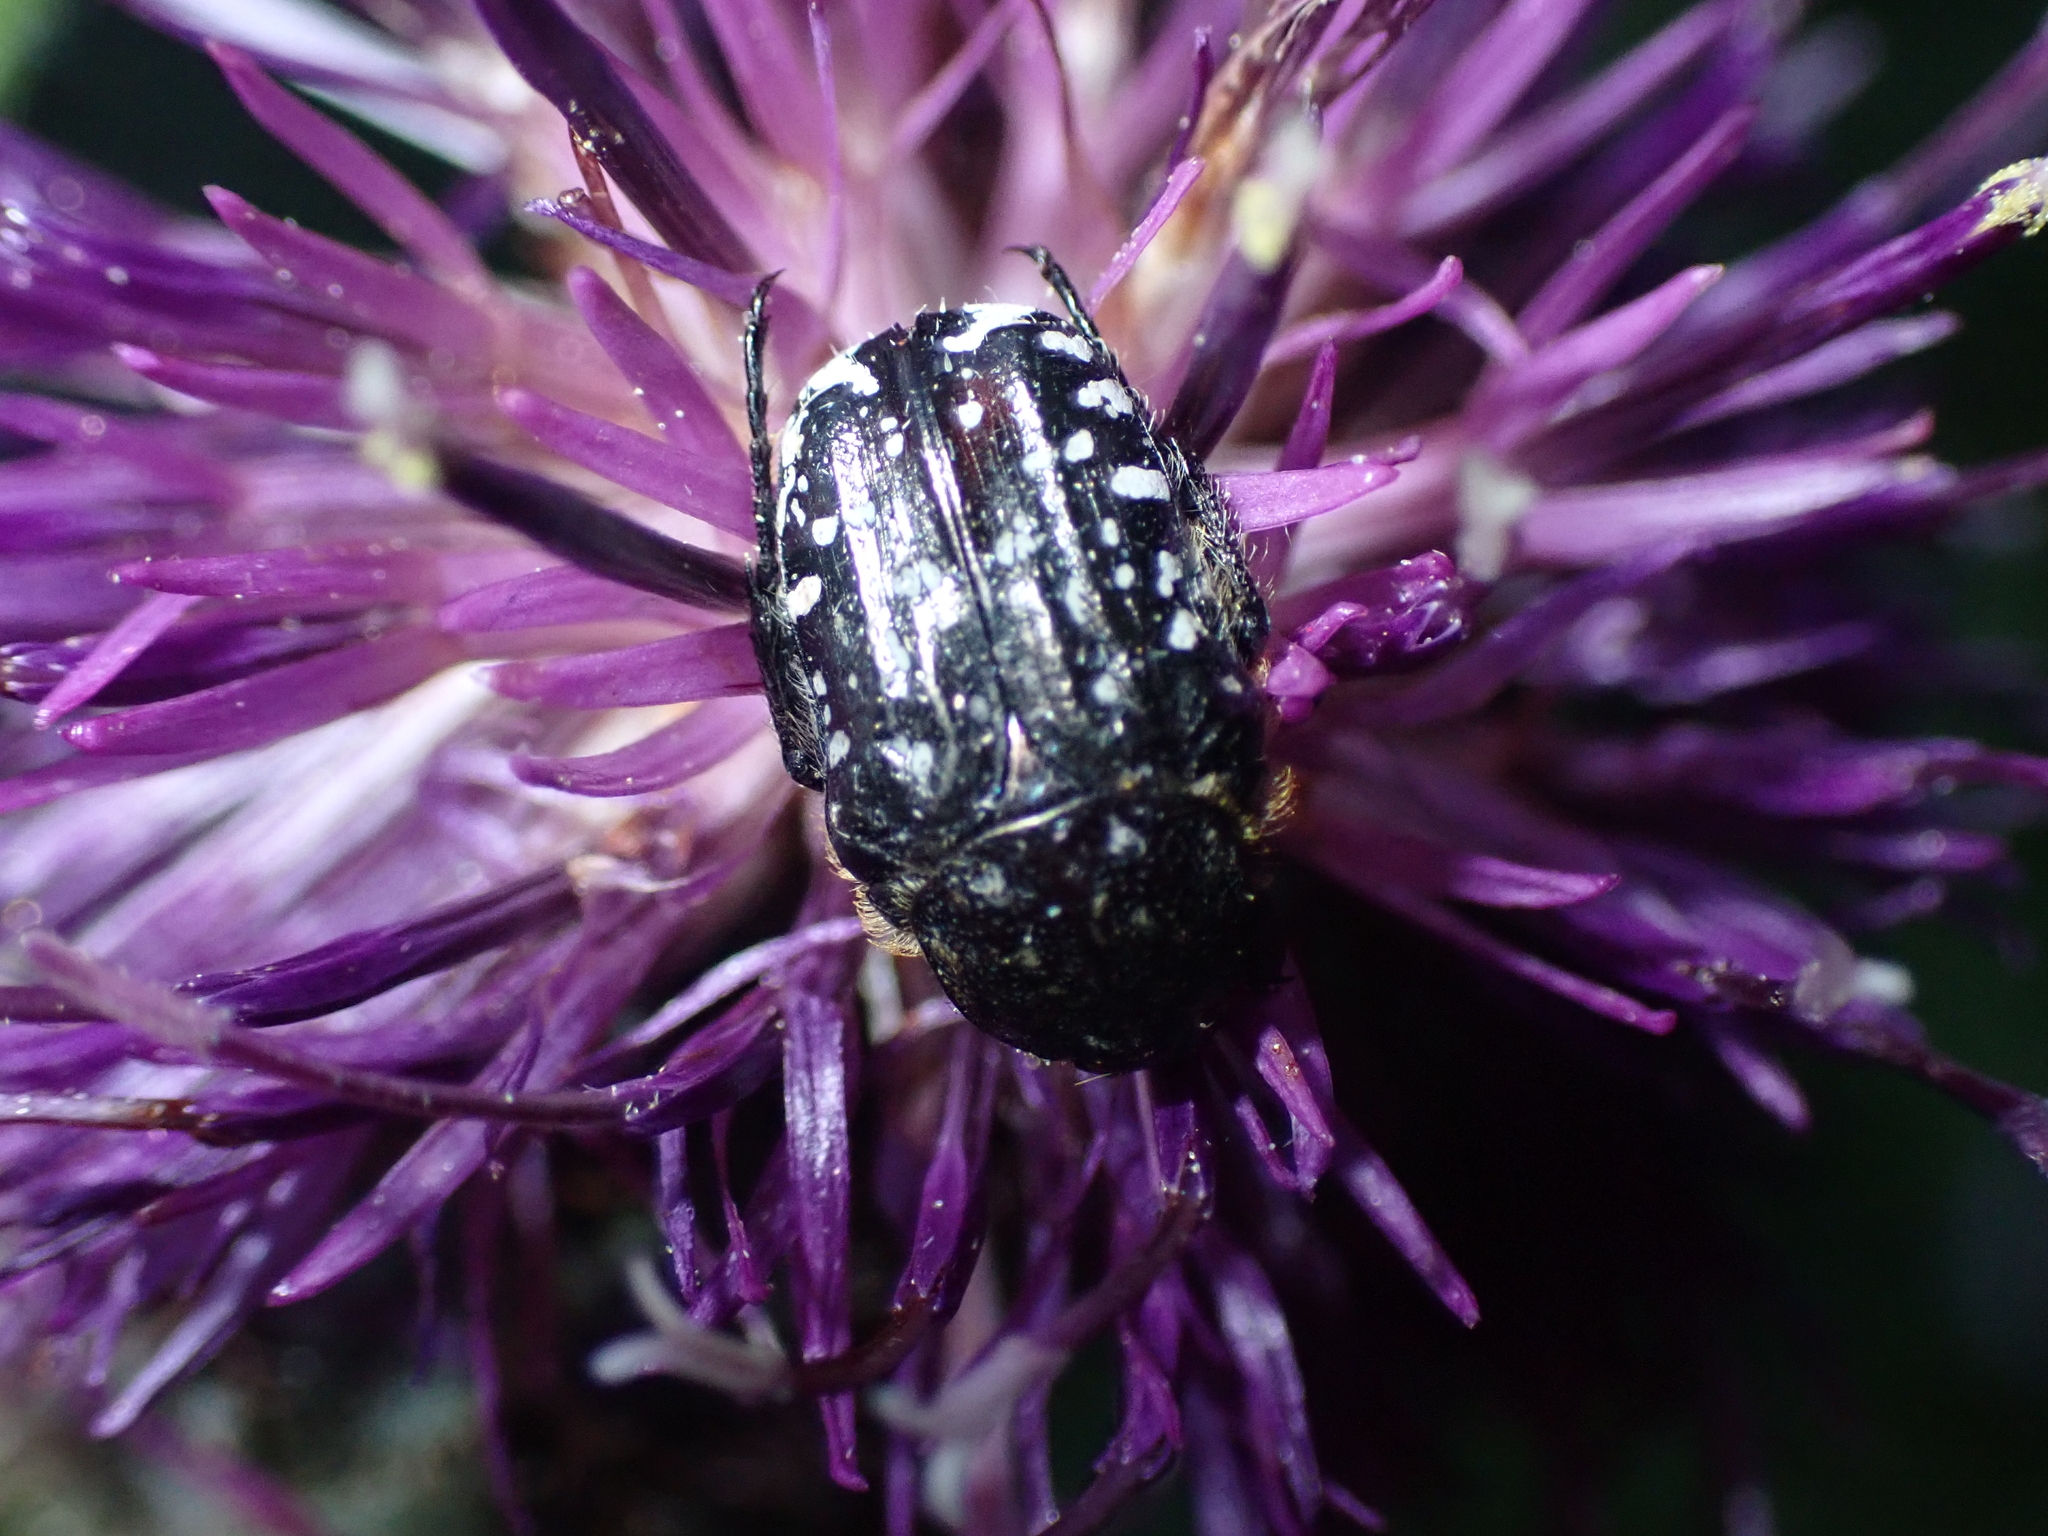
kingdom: Animalia
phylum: Arthropoda
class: Insecta
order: Coleoptera
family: Scarabaeidae
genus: Oxythyrea
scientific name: Oxythyrea funesta
